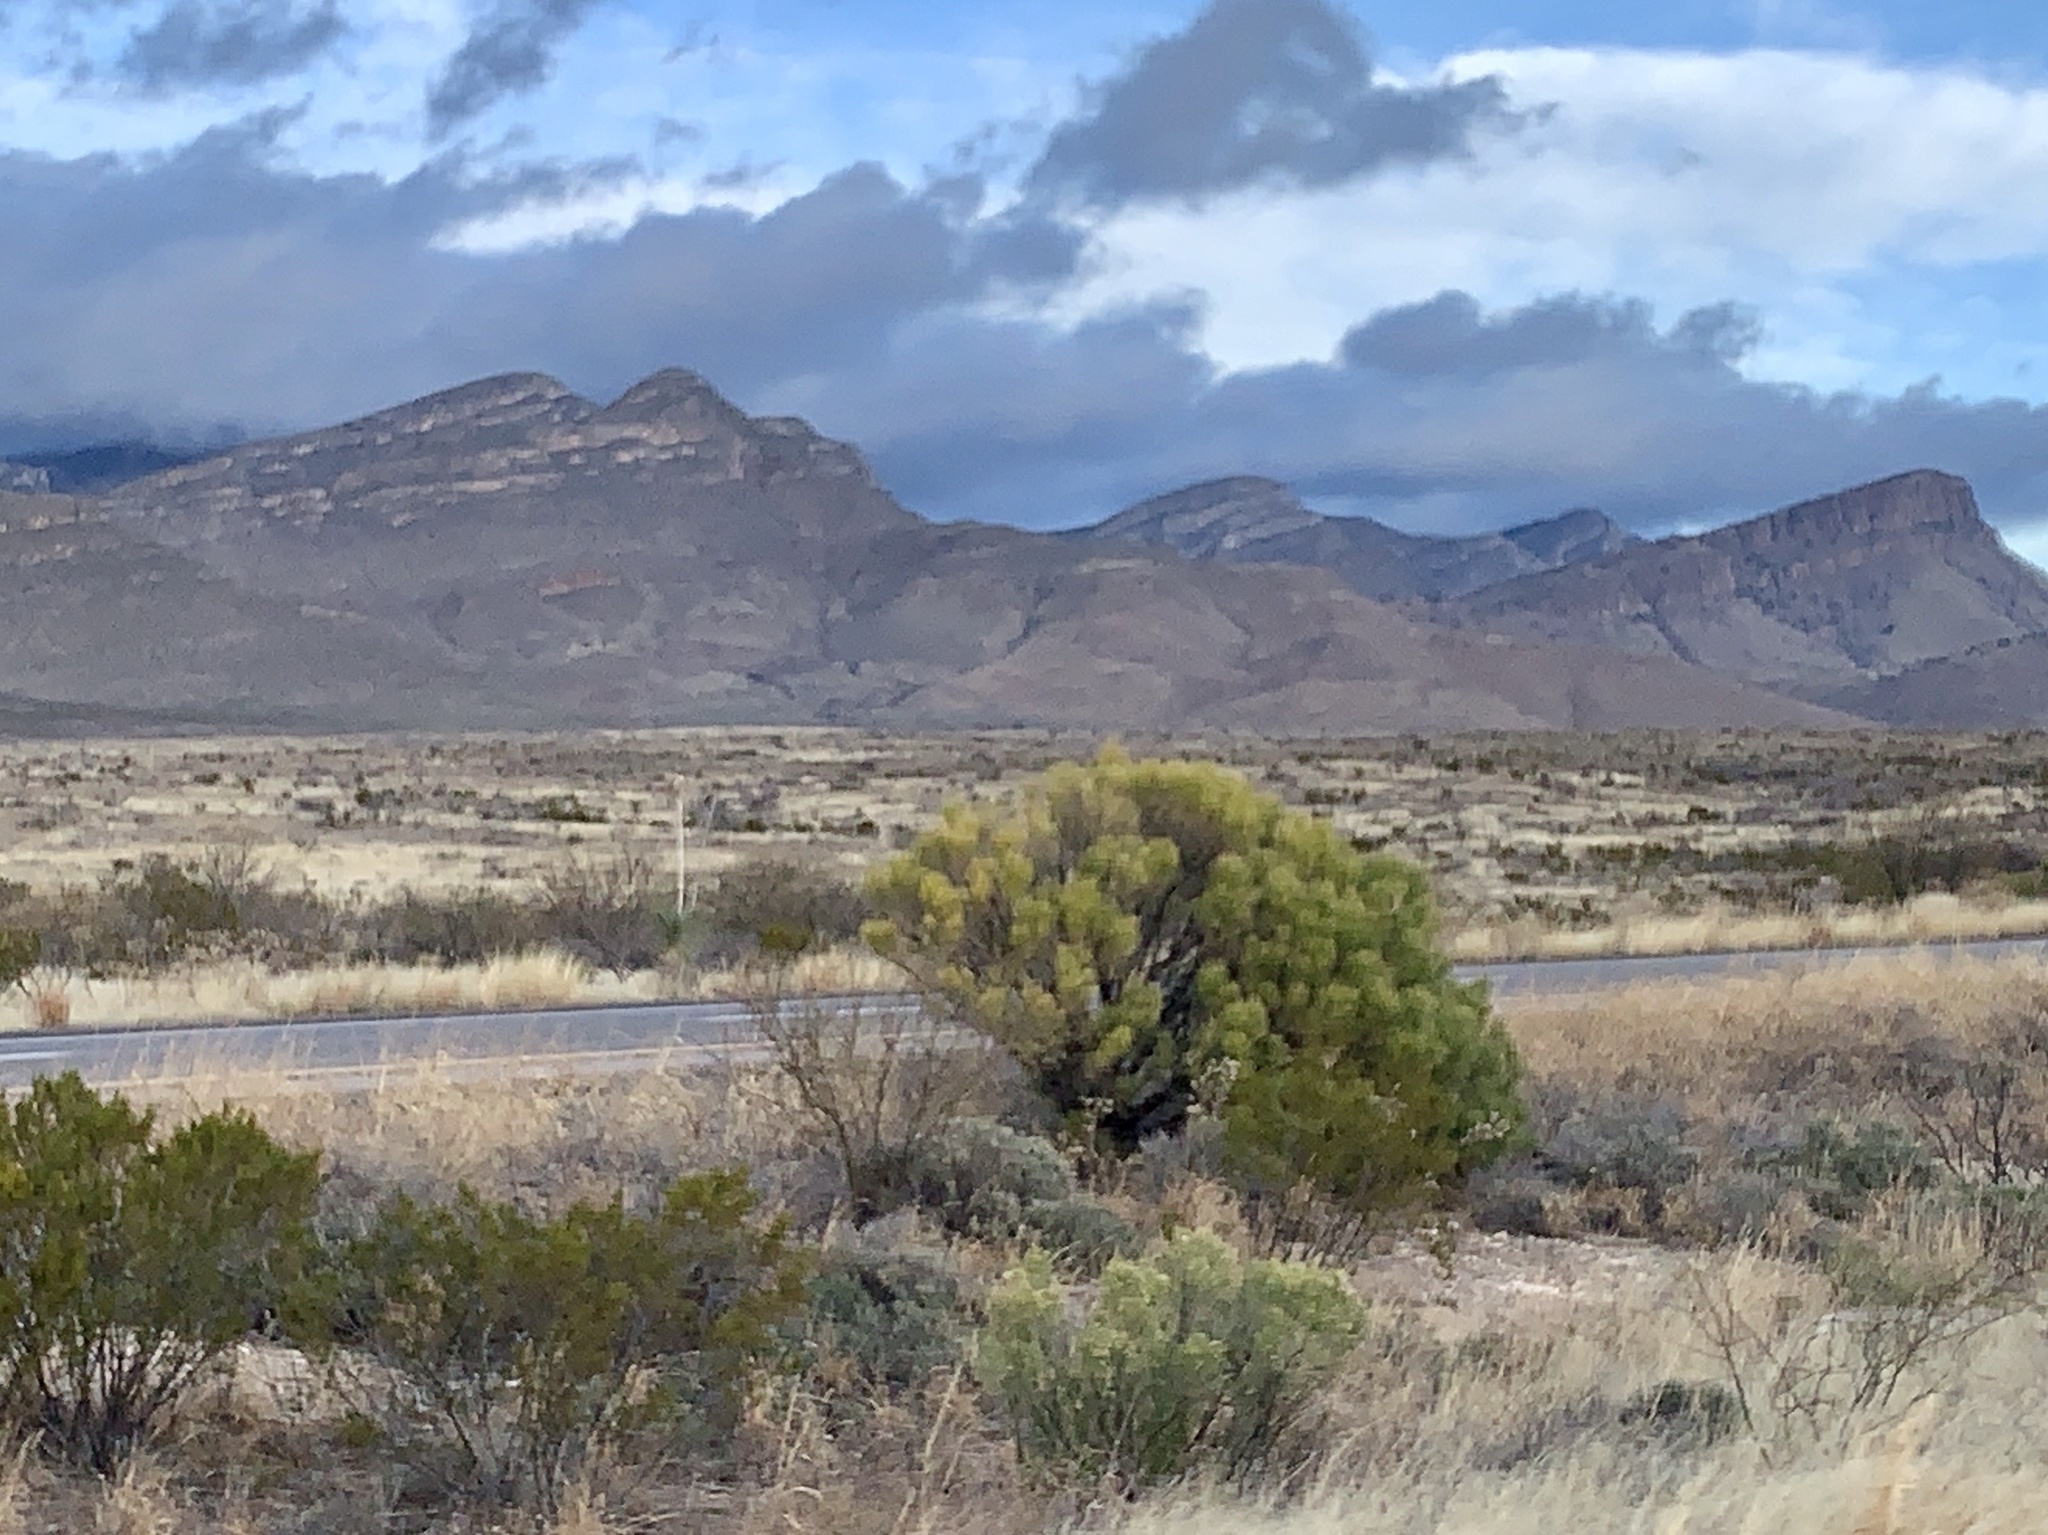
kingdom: Plantae
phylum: Tracheophyta
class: Magnoliopsida
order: Asterales
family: Asteraceae
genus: Baccharis
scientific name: Baccharis sarothroides
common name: Desert-broom
